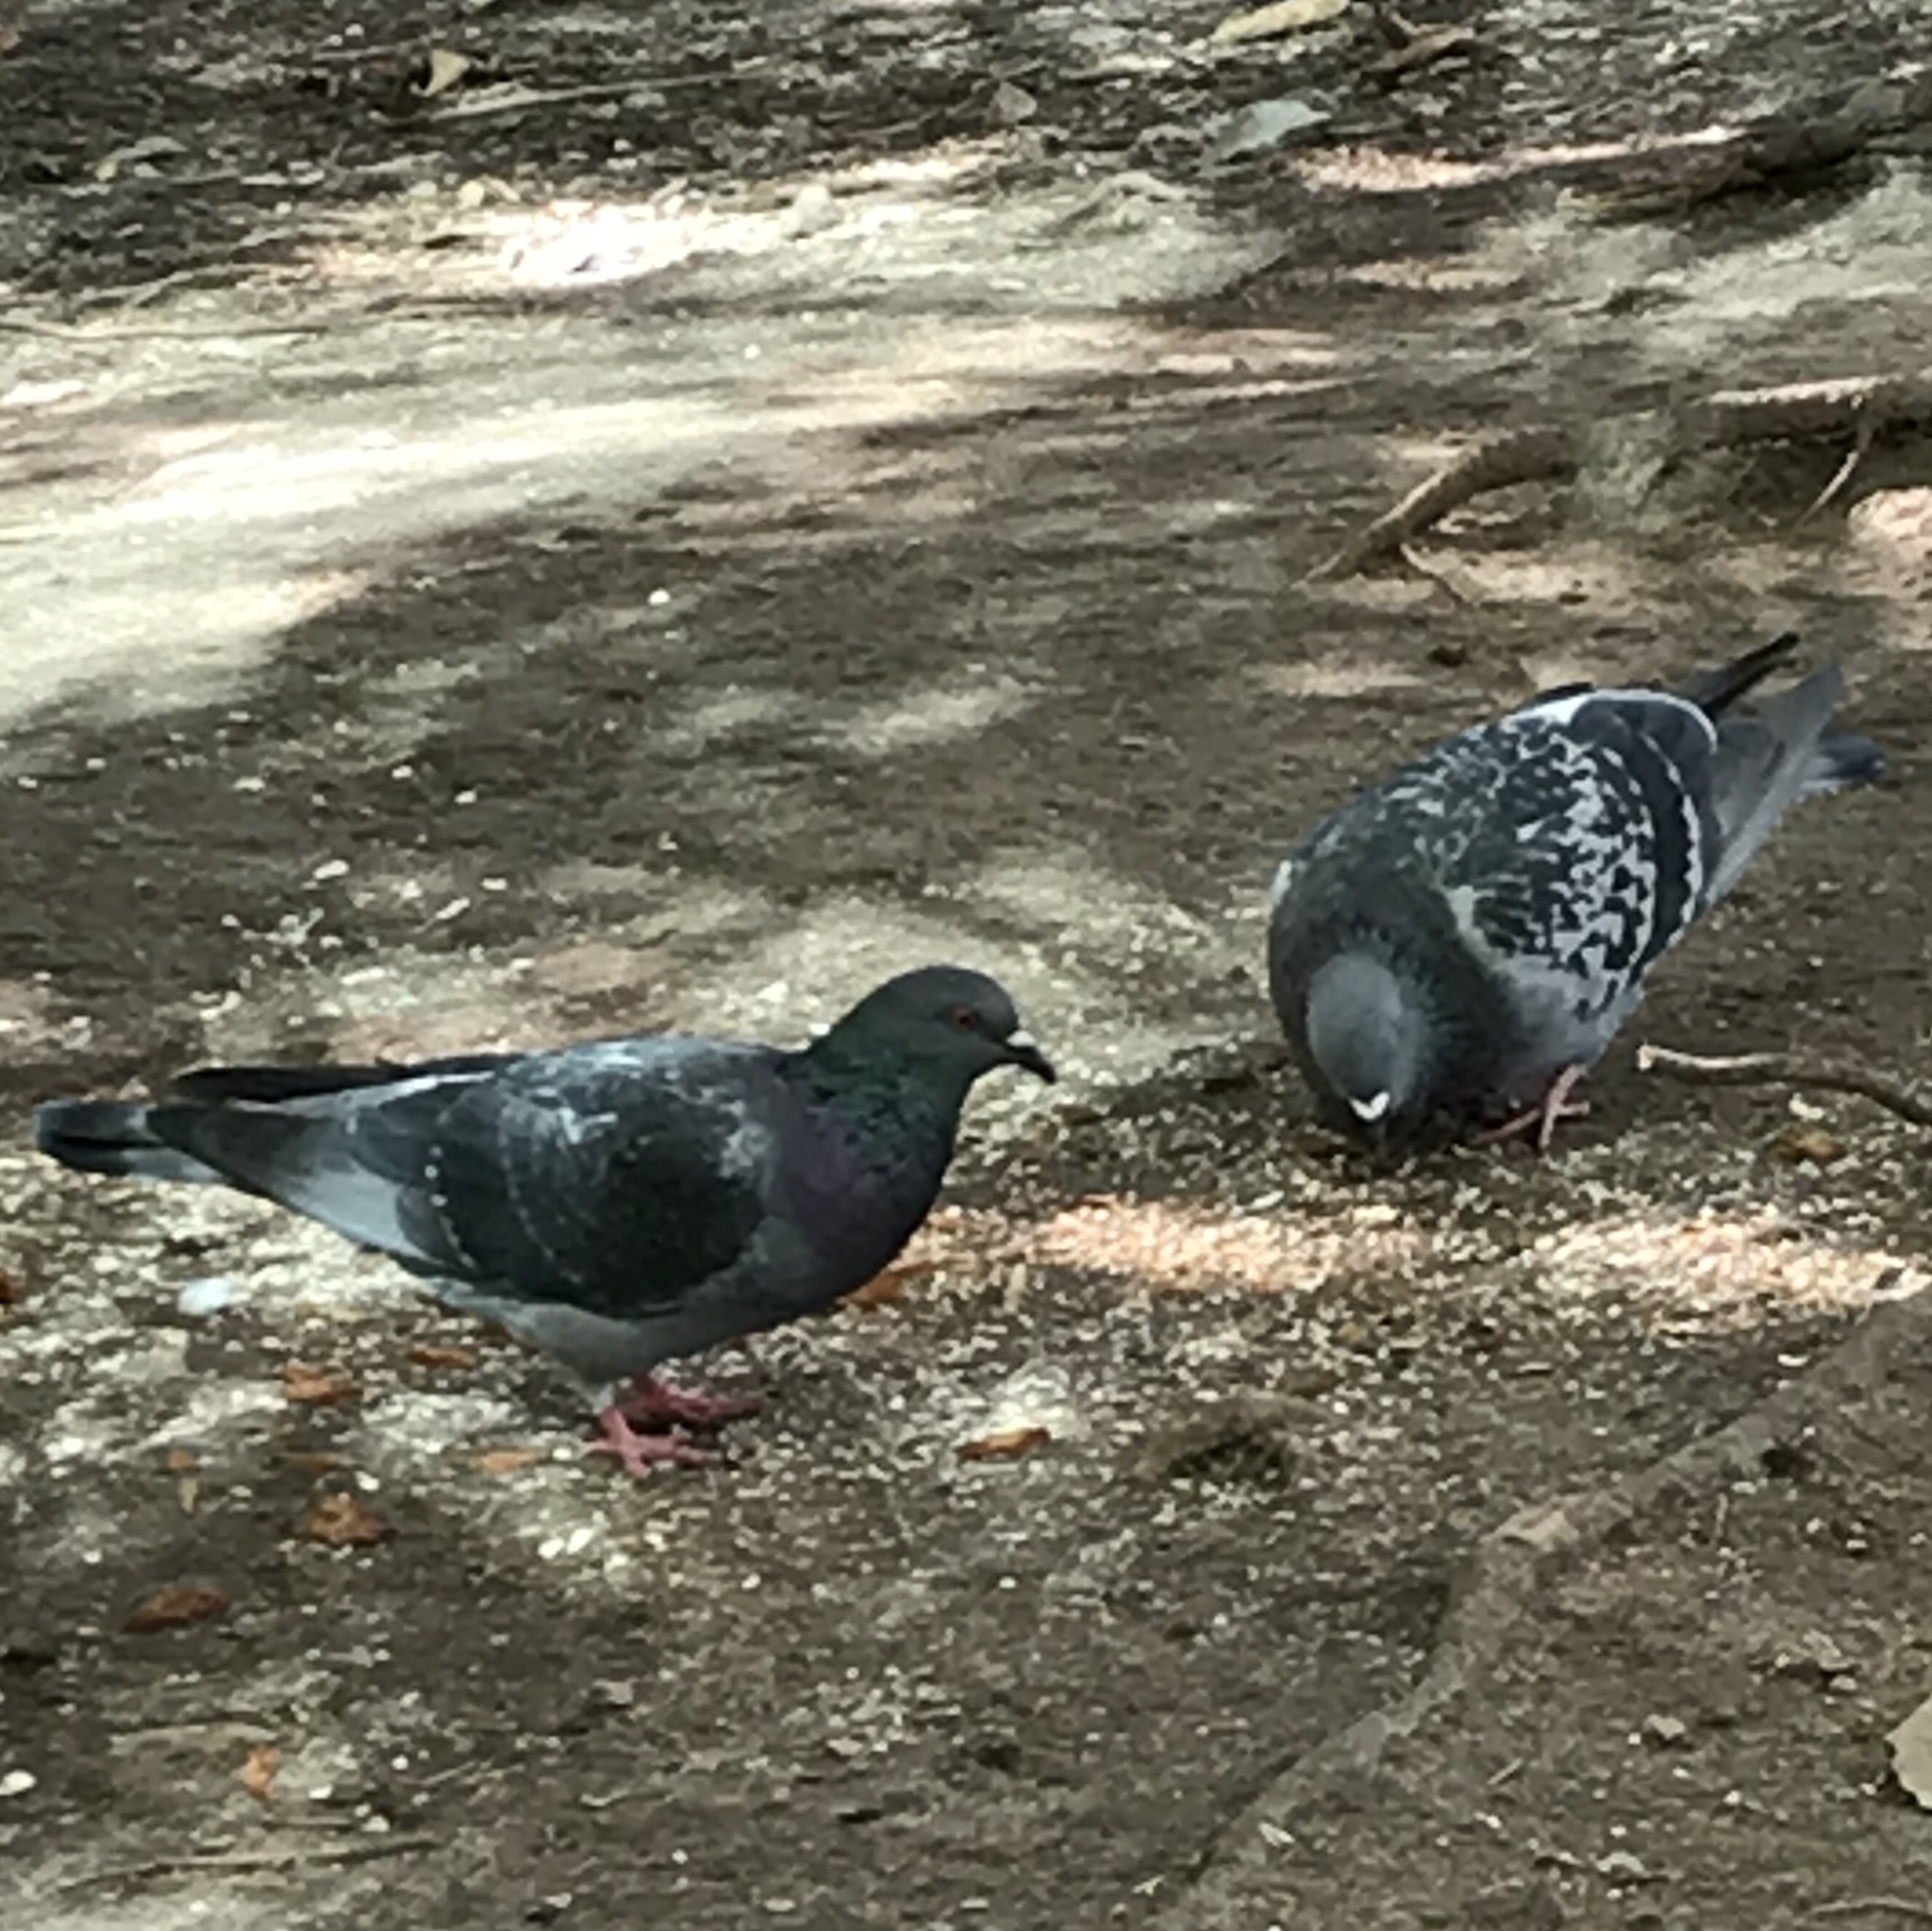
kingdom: Animalia
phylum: Chordata
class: Aves
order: Columbiformes
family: Columbidae
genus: Columba
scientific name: Columba livia
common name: Rock pigeon
